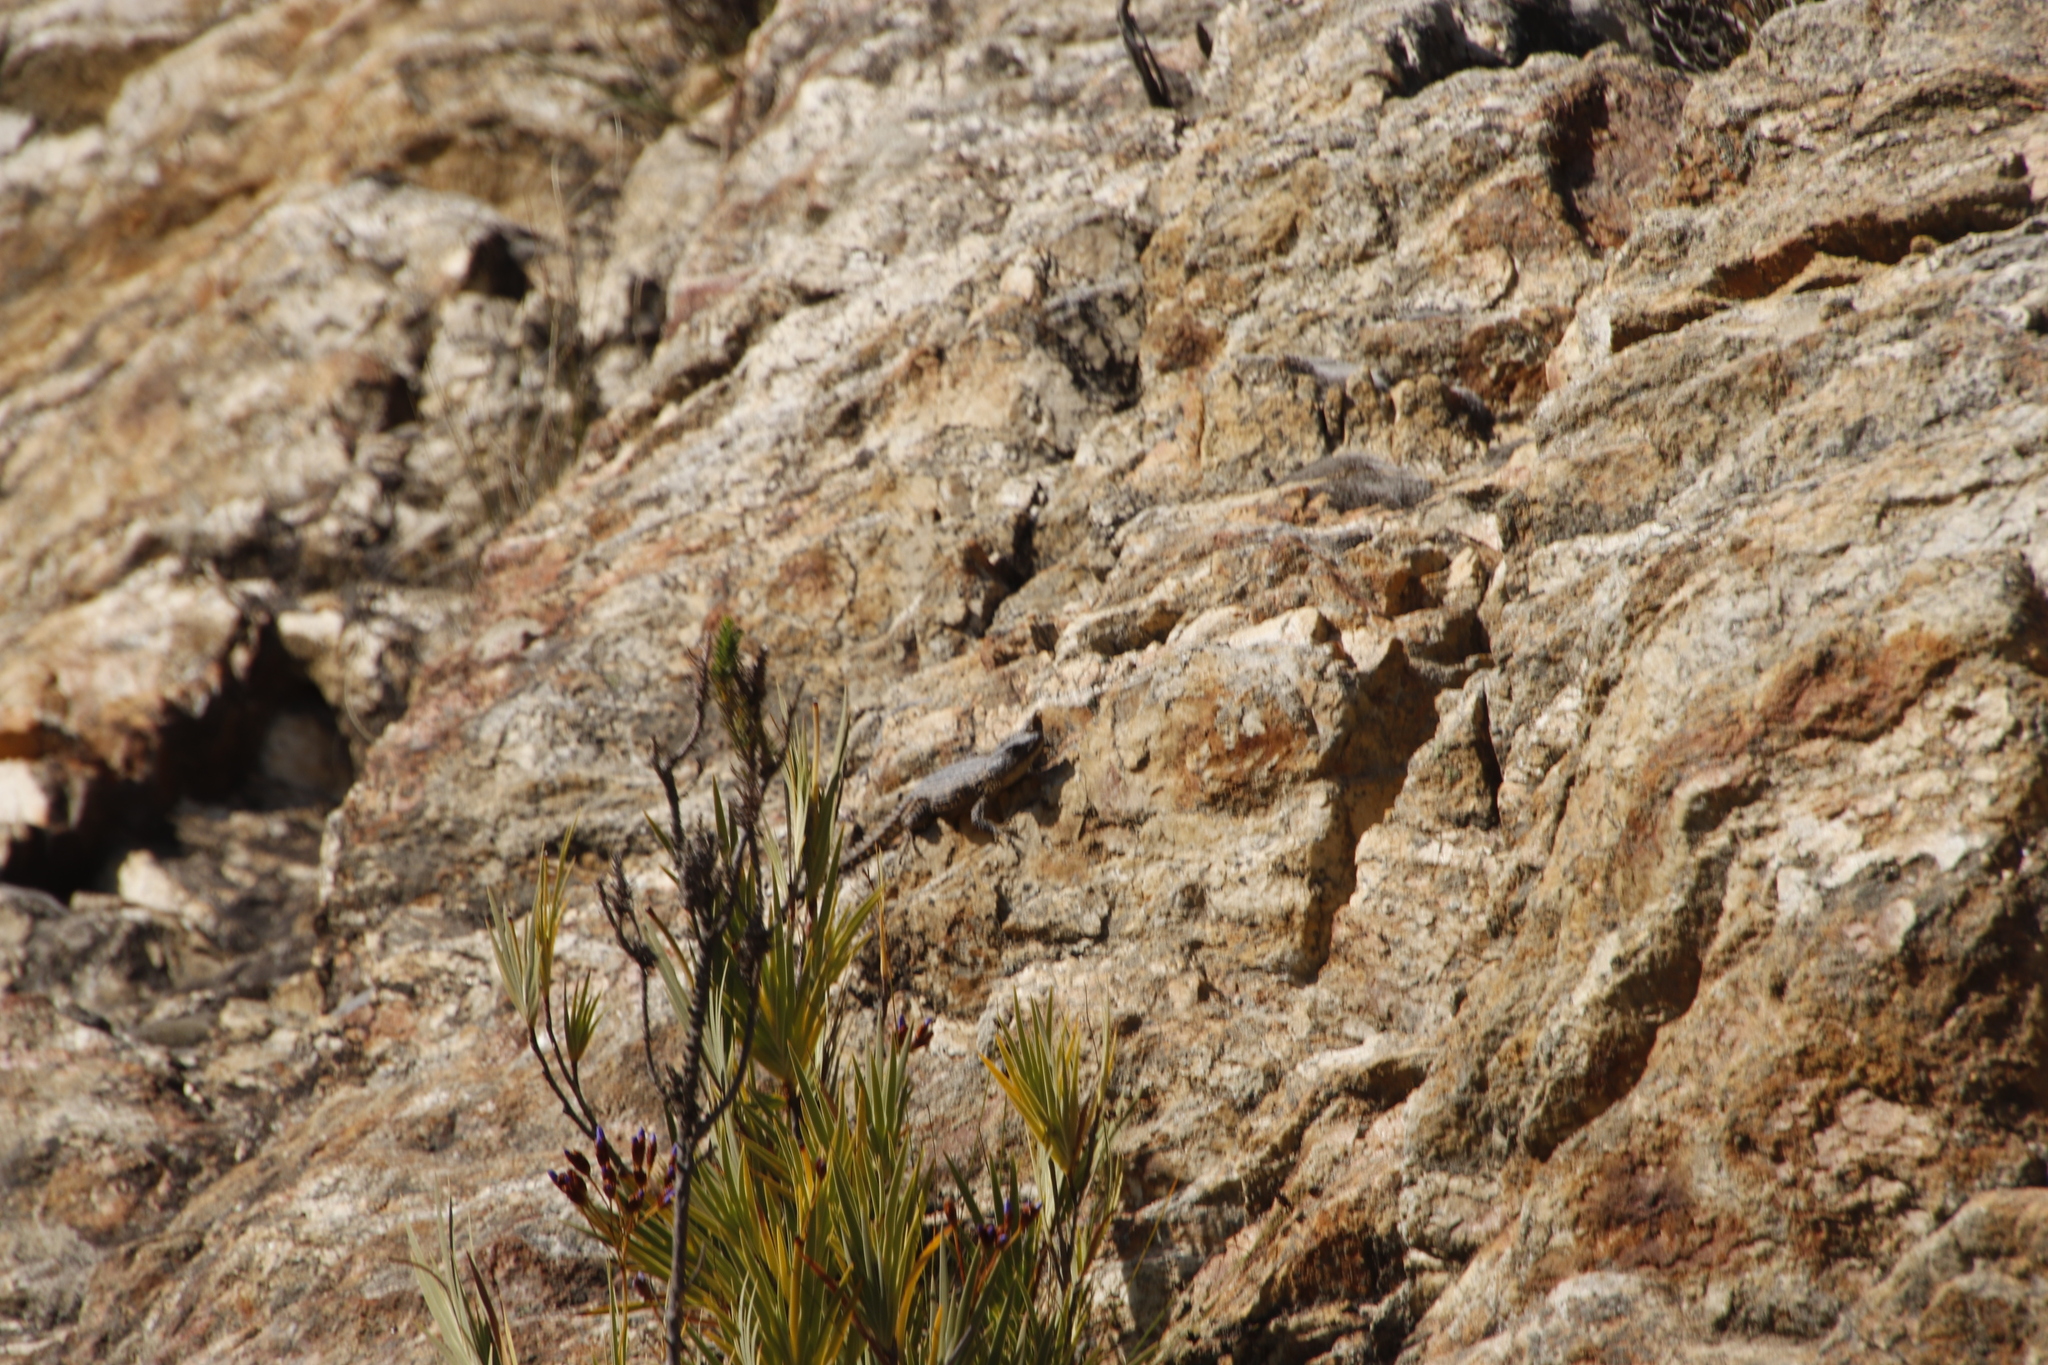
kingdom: Animalia
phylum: Chordata
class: Squamata
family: Cordylidae
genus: Cordylus
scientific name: Cordylus cordylus
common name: Cape girdled lizard
